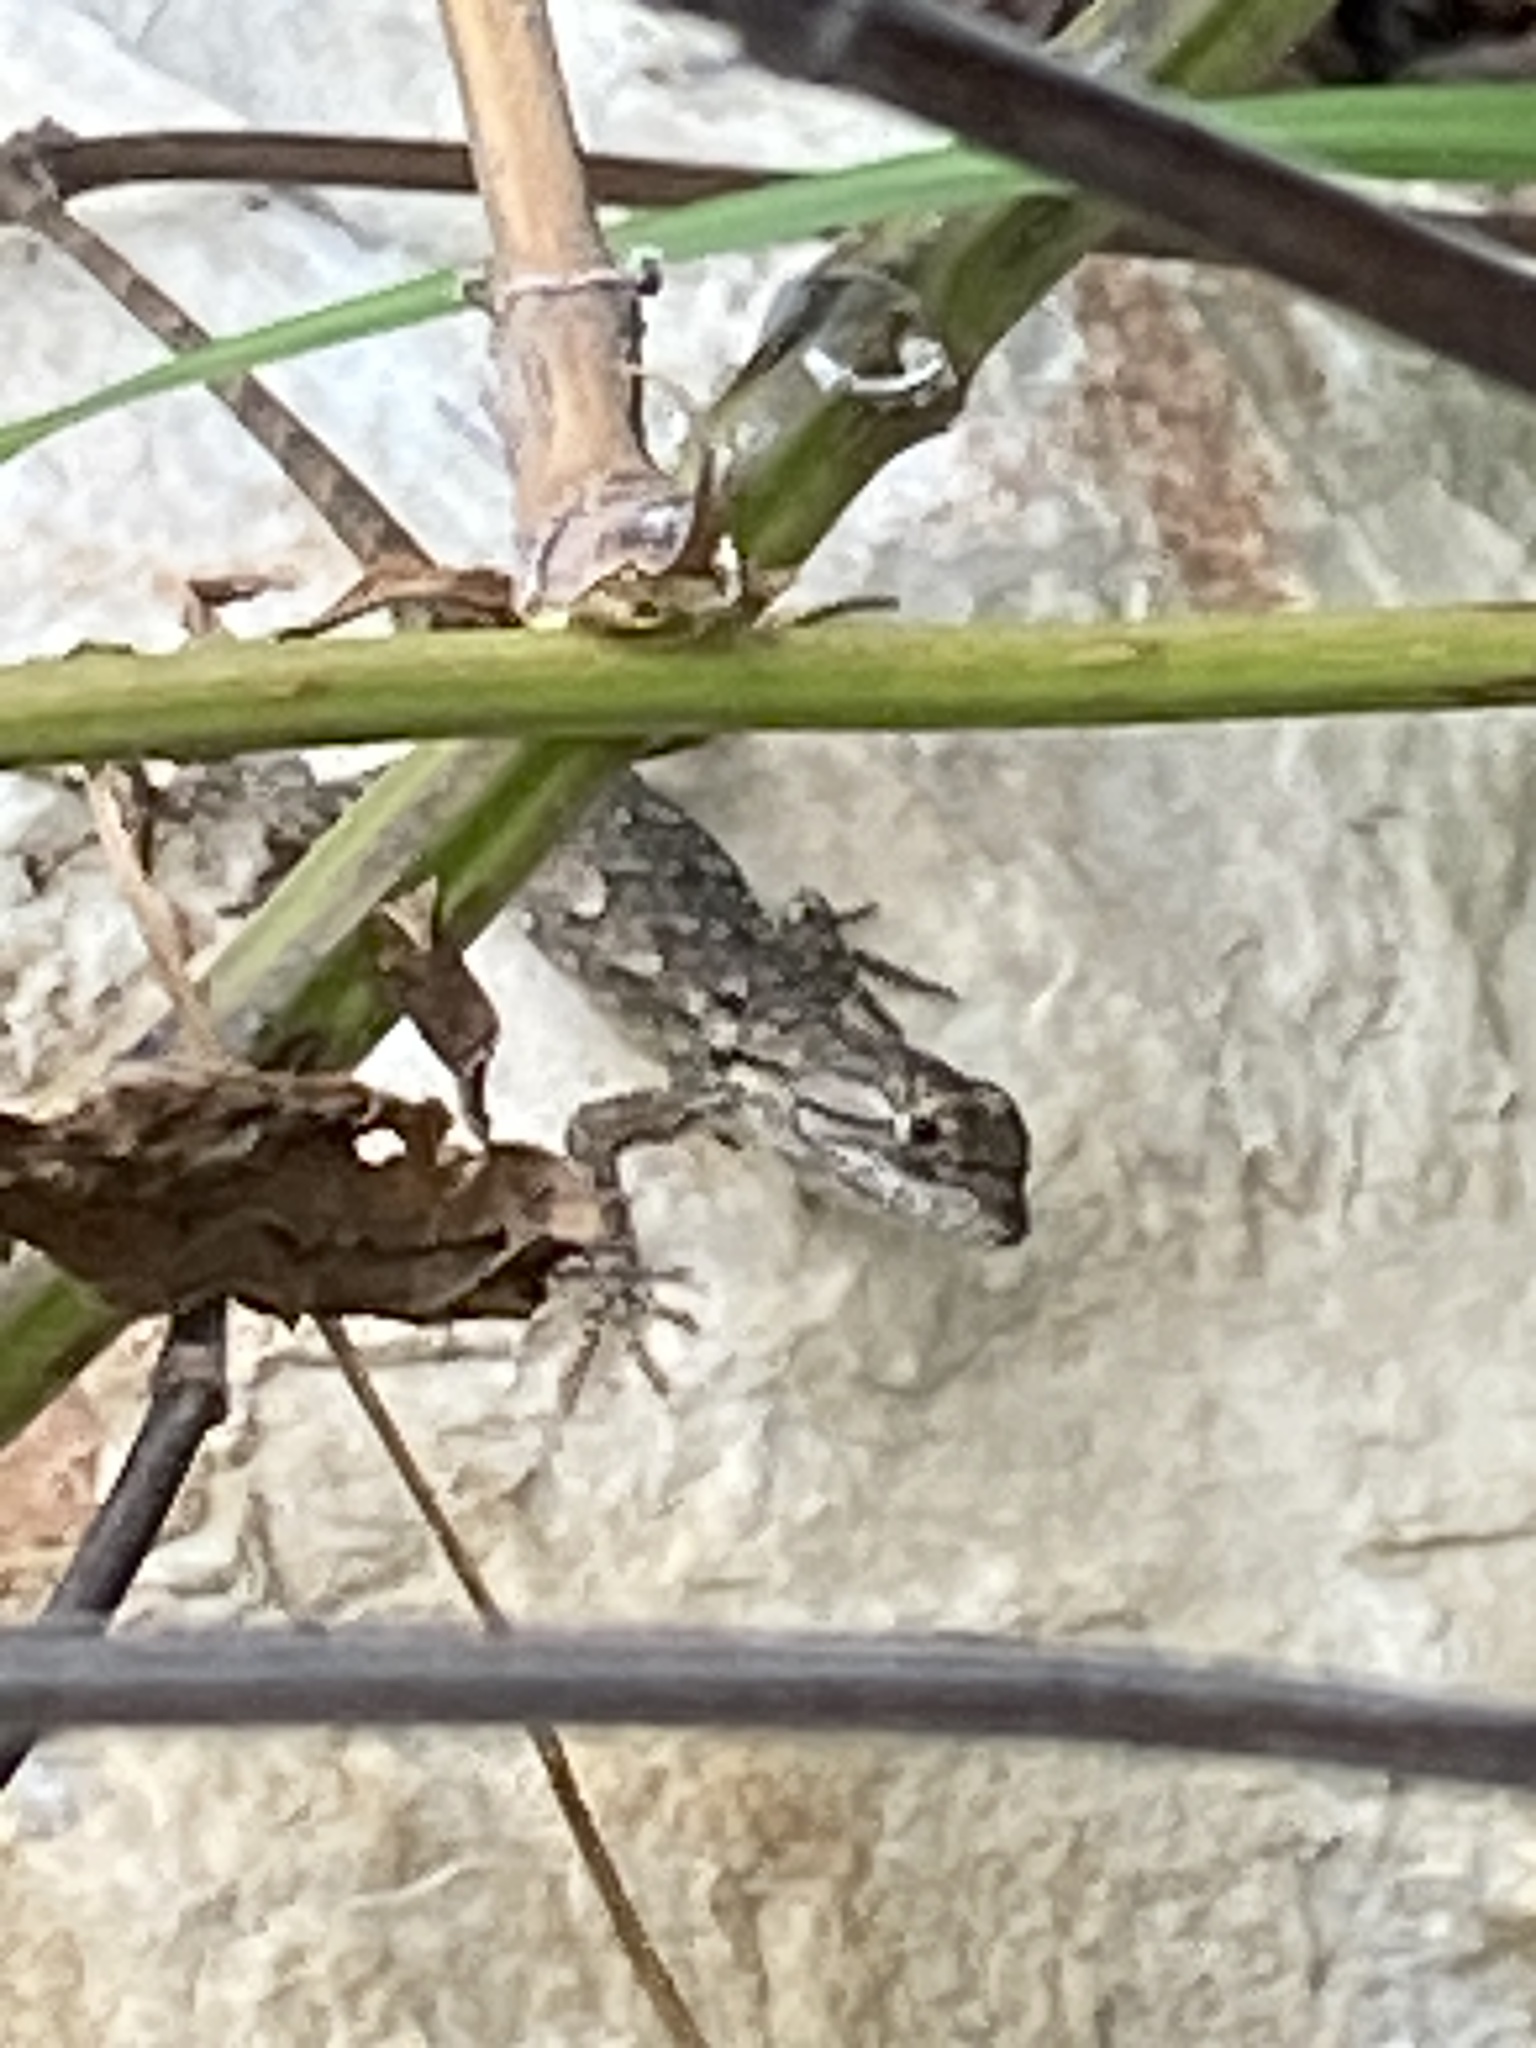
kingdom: Animalia
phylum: Chordata
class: Squamata
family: Phrynosomatidae
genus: Sceloporus
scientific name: Sceloporus olivaceus
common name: Texas spiny lizard
